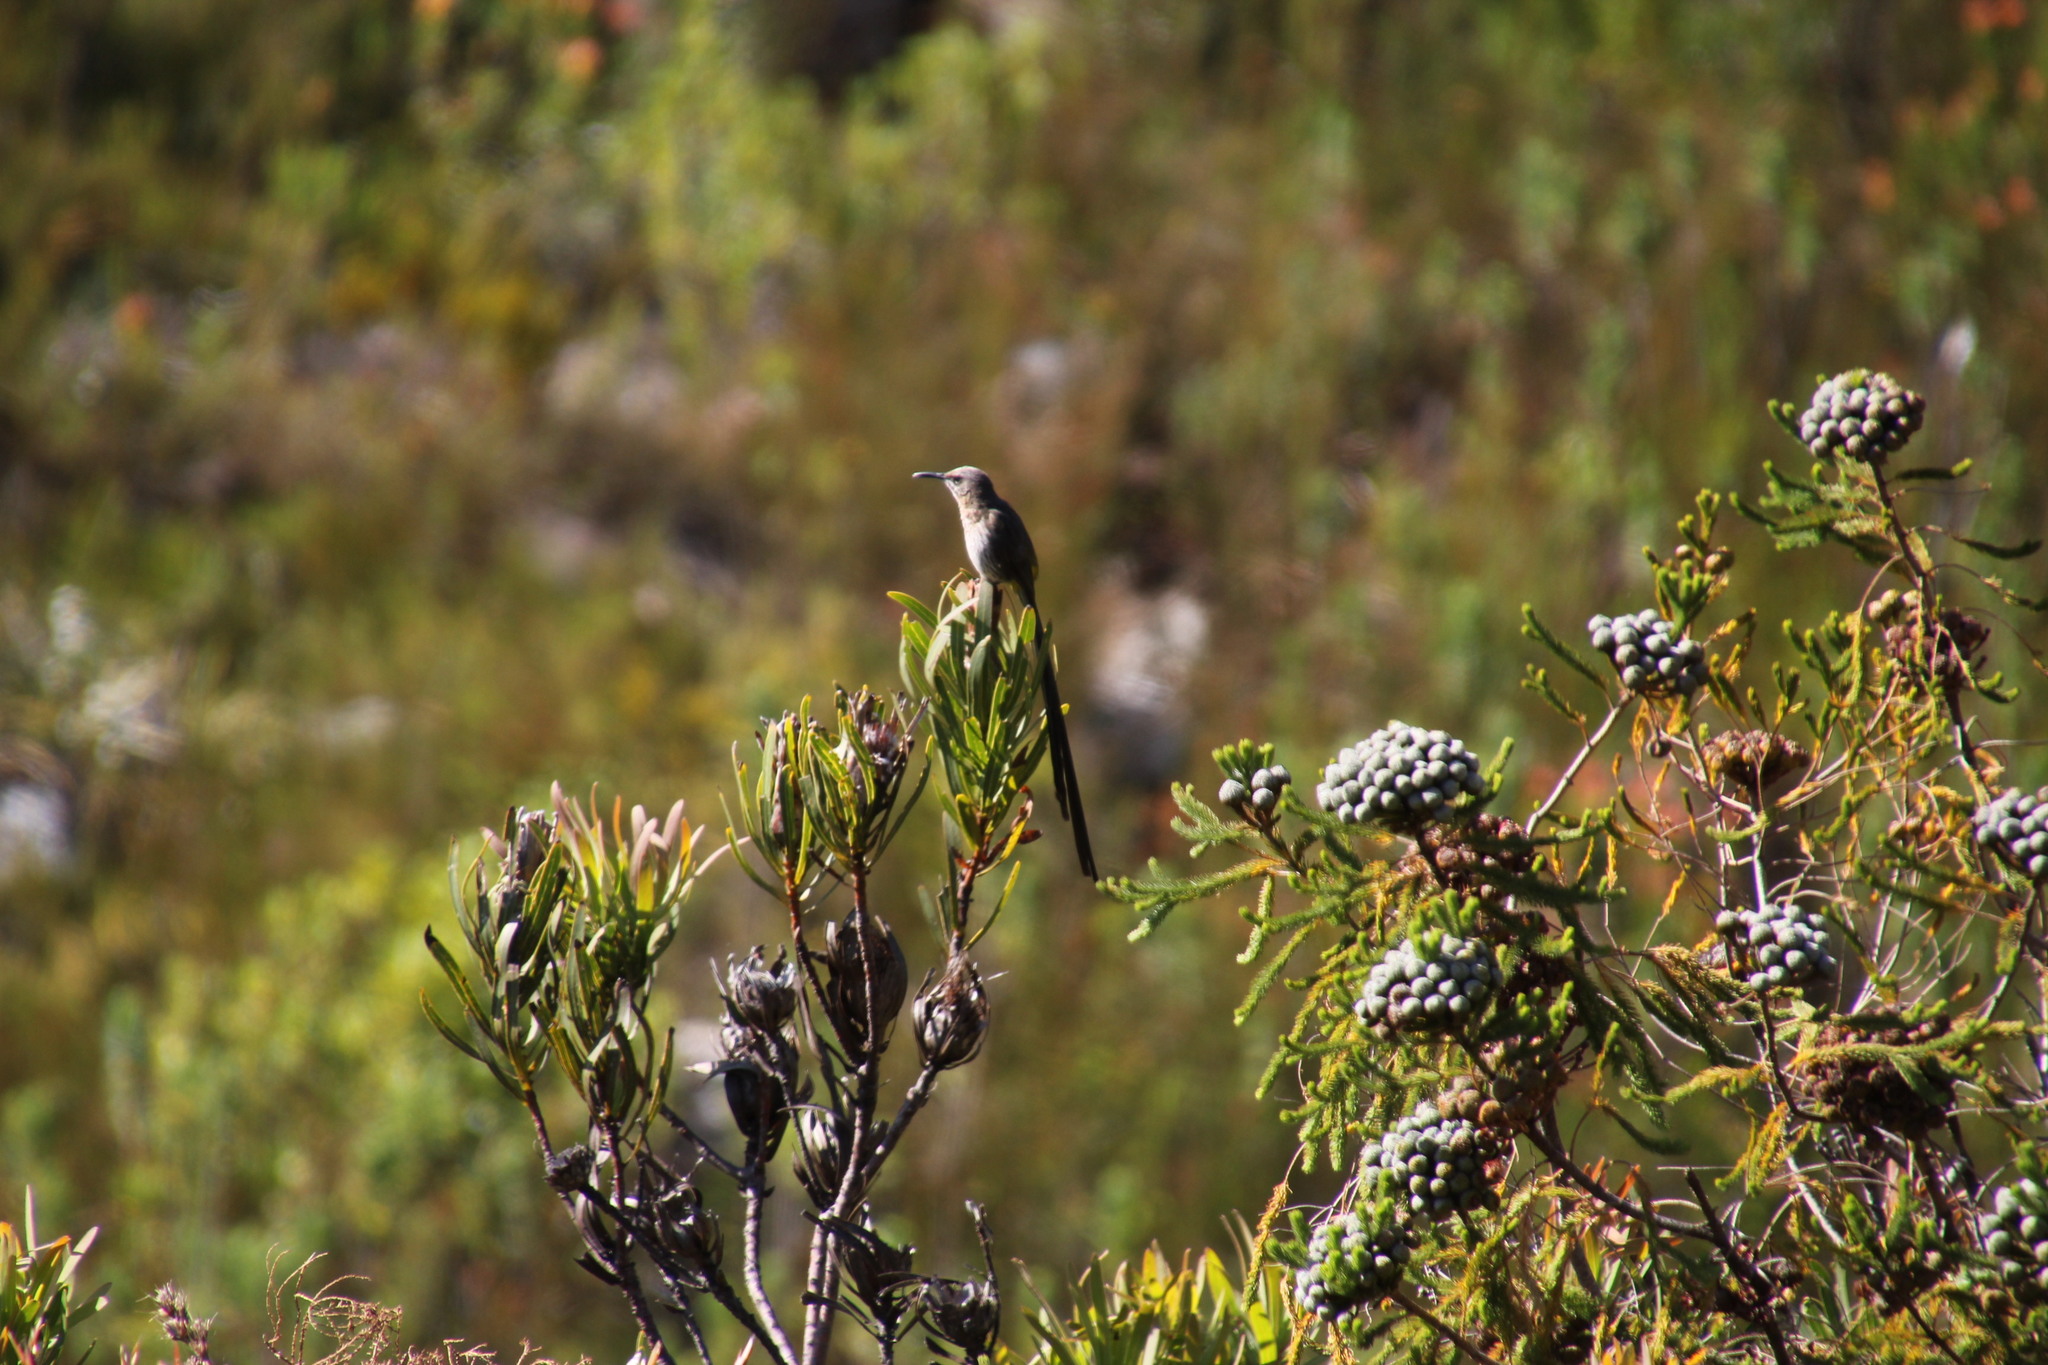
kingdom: Animalia
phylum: Chordata
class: Aves
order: Passeriformes
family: Promeropidae
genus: Promerops
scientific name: Promerops cafer
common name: Cape sugarbird
